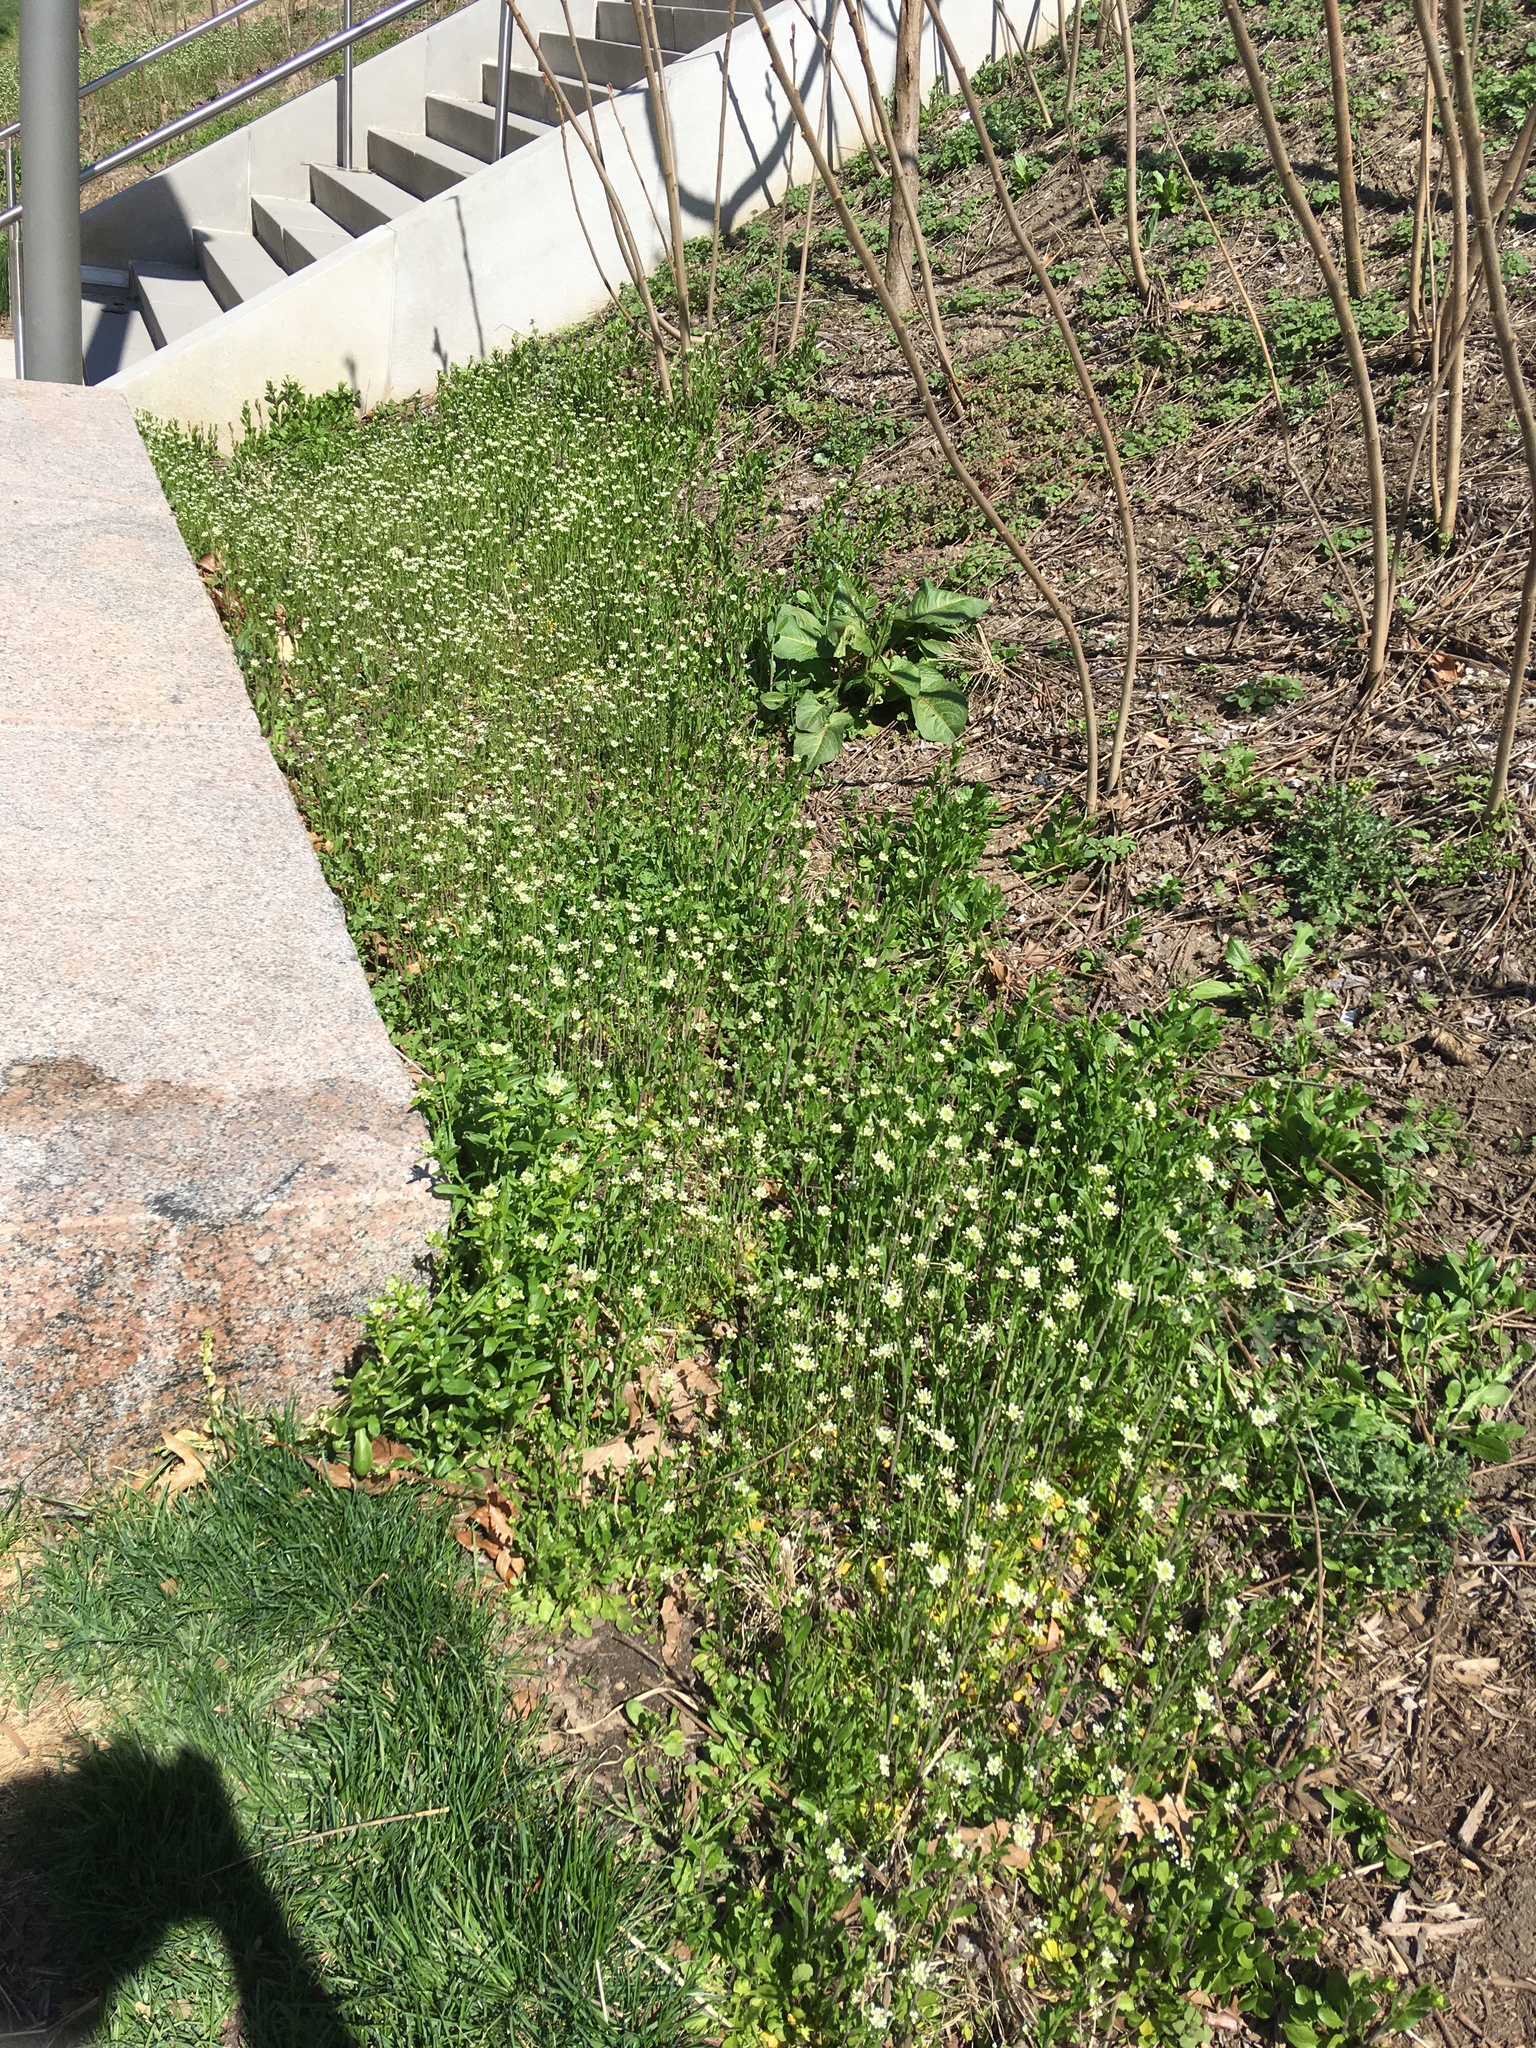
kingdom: Plantae
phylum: Tracheophyta
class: Magnoliopsida
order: Brassicales
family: Brassicaceae
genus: Mummenhoffia
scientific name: Mummenhoffia alliacea
